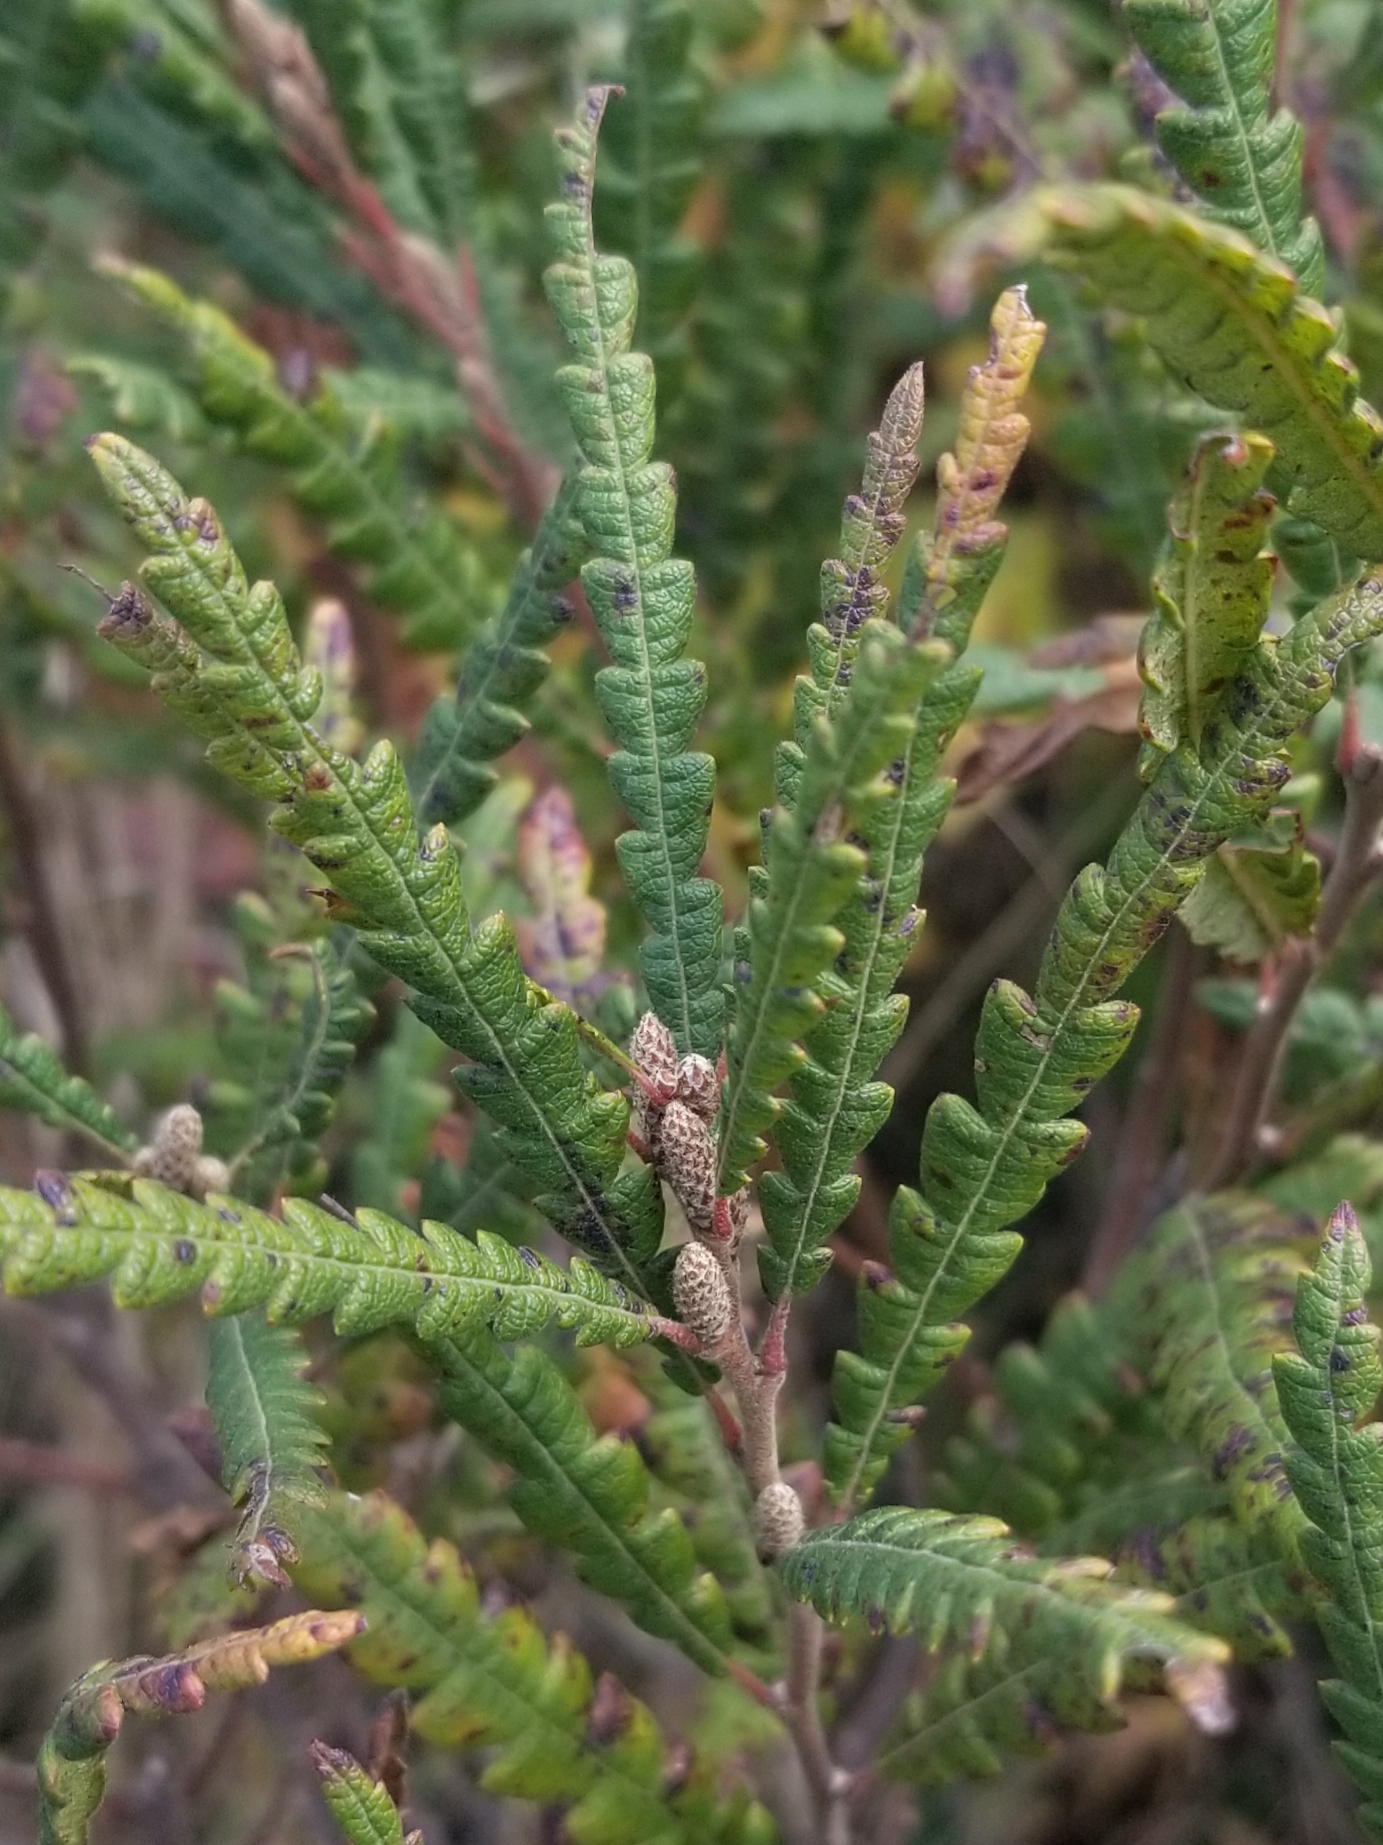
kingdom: Plantae
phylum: Tracheophyta
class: Magnoliopsida
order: Fagales
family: Myricaceae
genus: Comptonia
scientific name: Comptonia peregrina
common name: Sweet-fern
